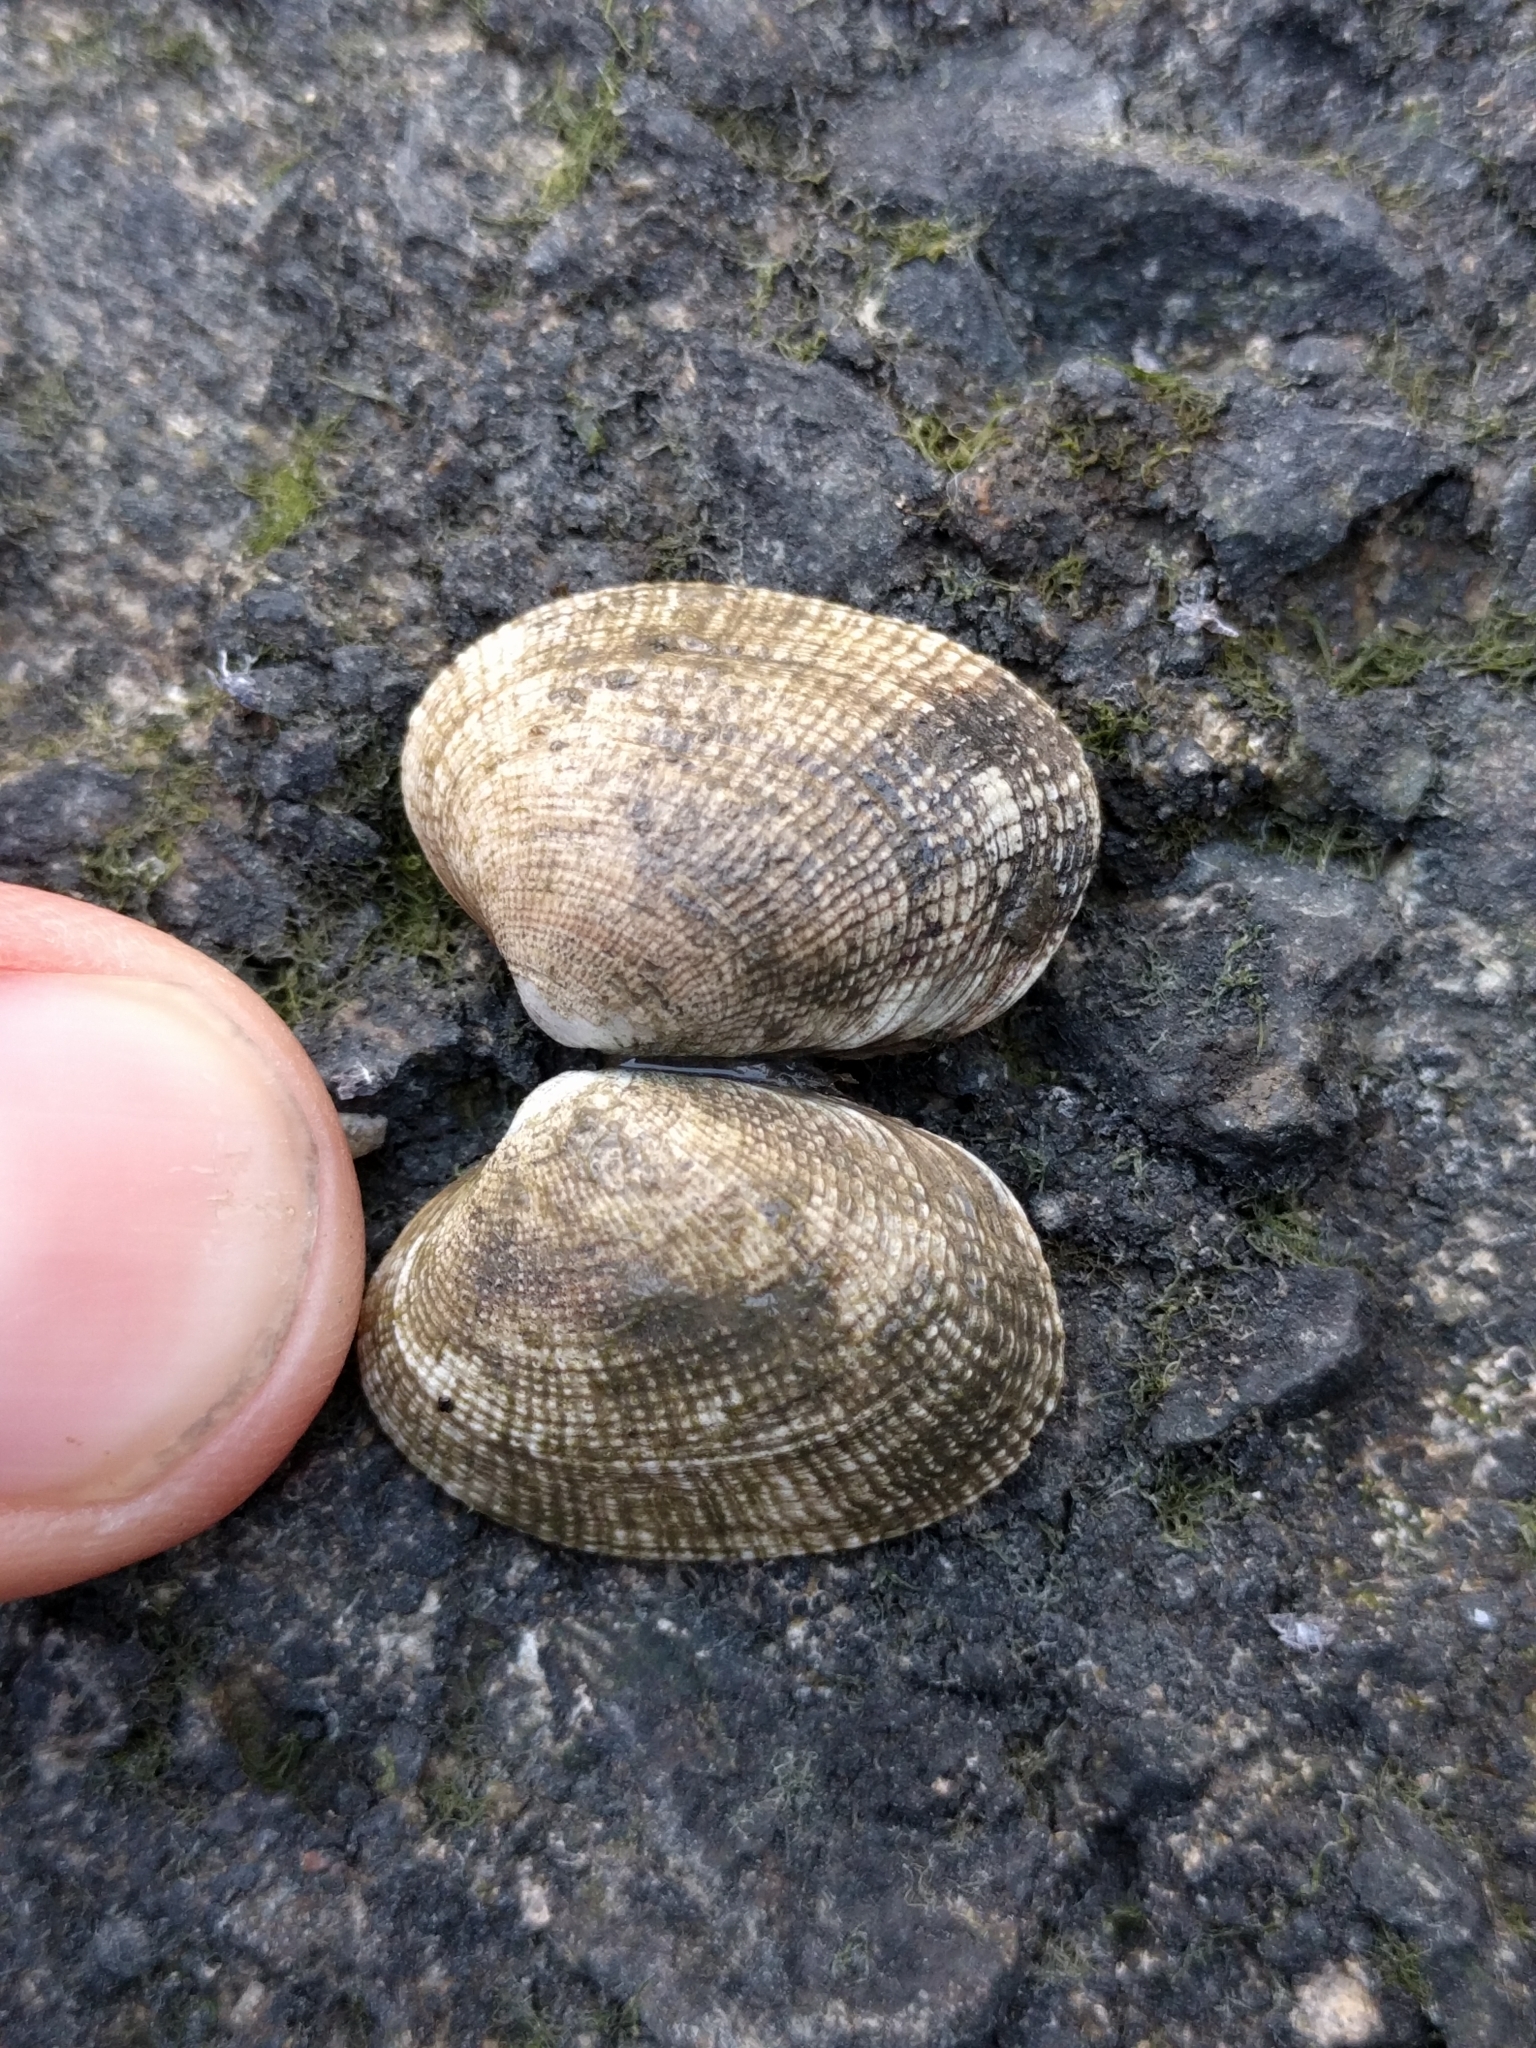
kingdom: Animalia
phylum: Mollusca
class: Bivalvia
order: Venerida
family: Veneridae
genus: Ruditapes
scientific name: Ruditapes philippinarum
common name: Manila clam
